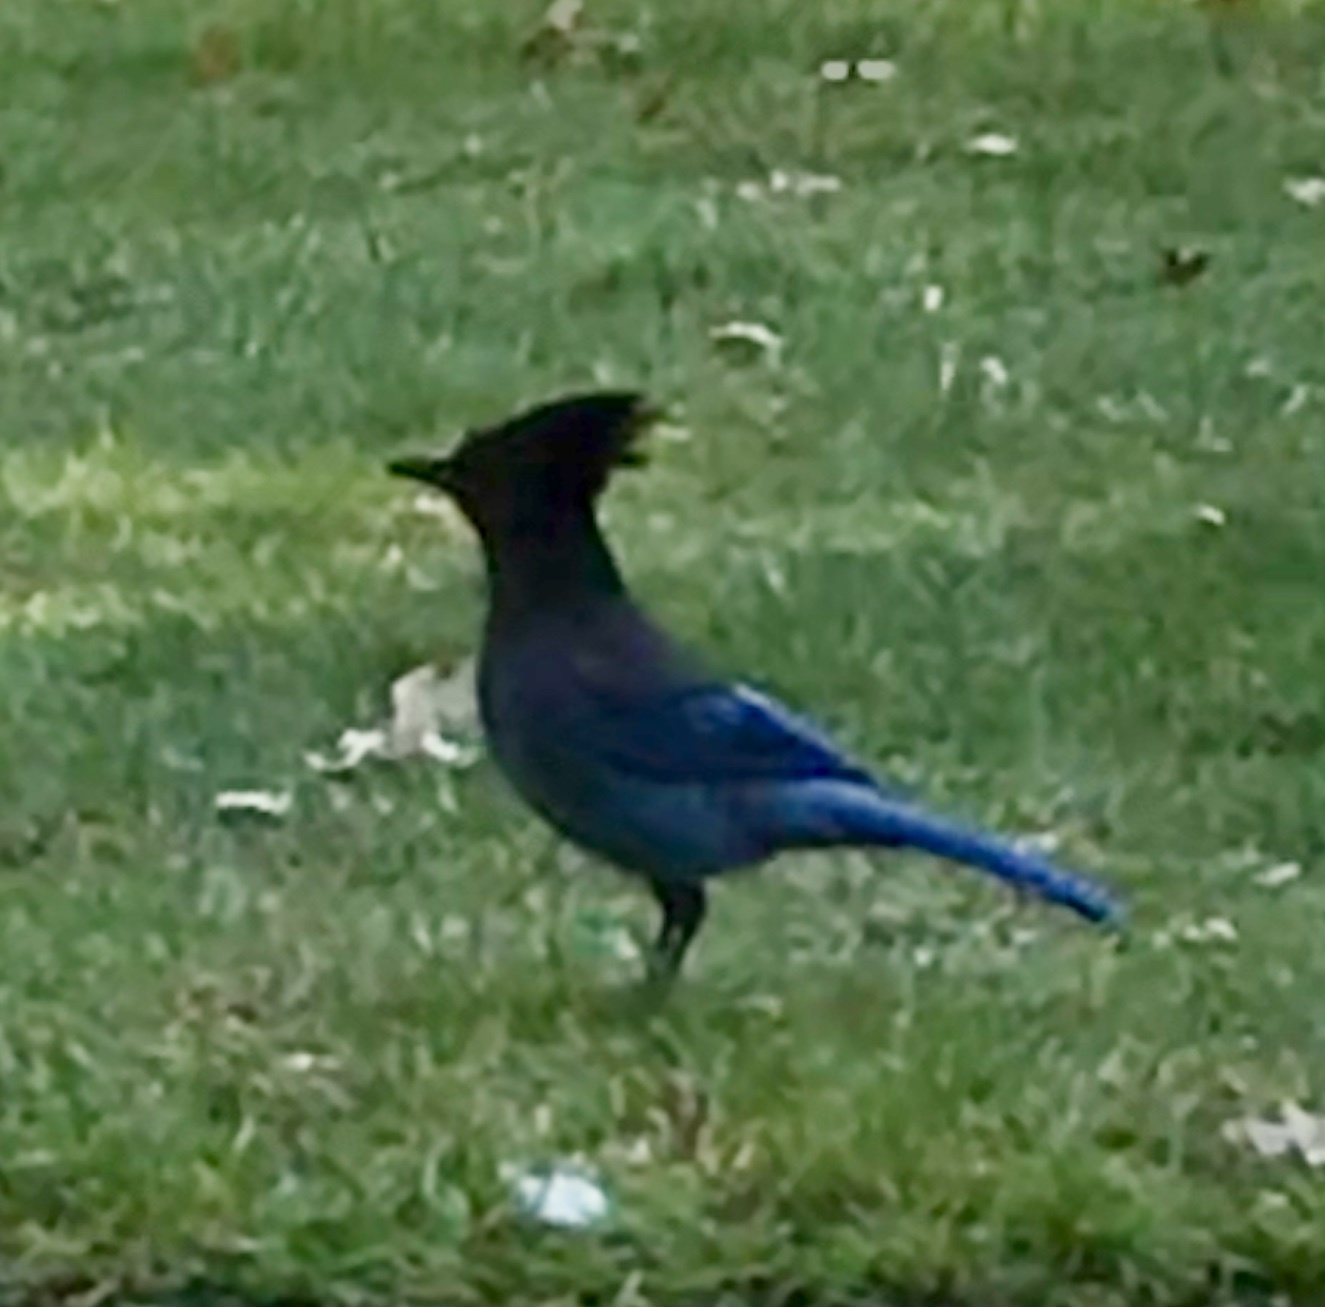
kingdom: Animalia
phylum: Chordata
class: Aves
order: Passeriformes
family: Corvidae
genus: Cyanocitta
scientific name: Cyanocitta stelleri
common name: Steller's jay
